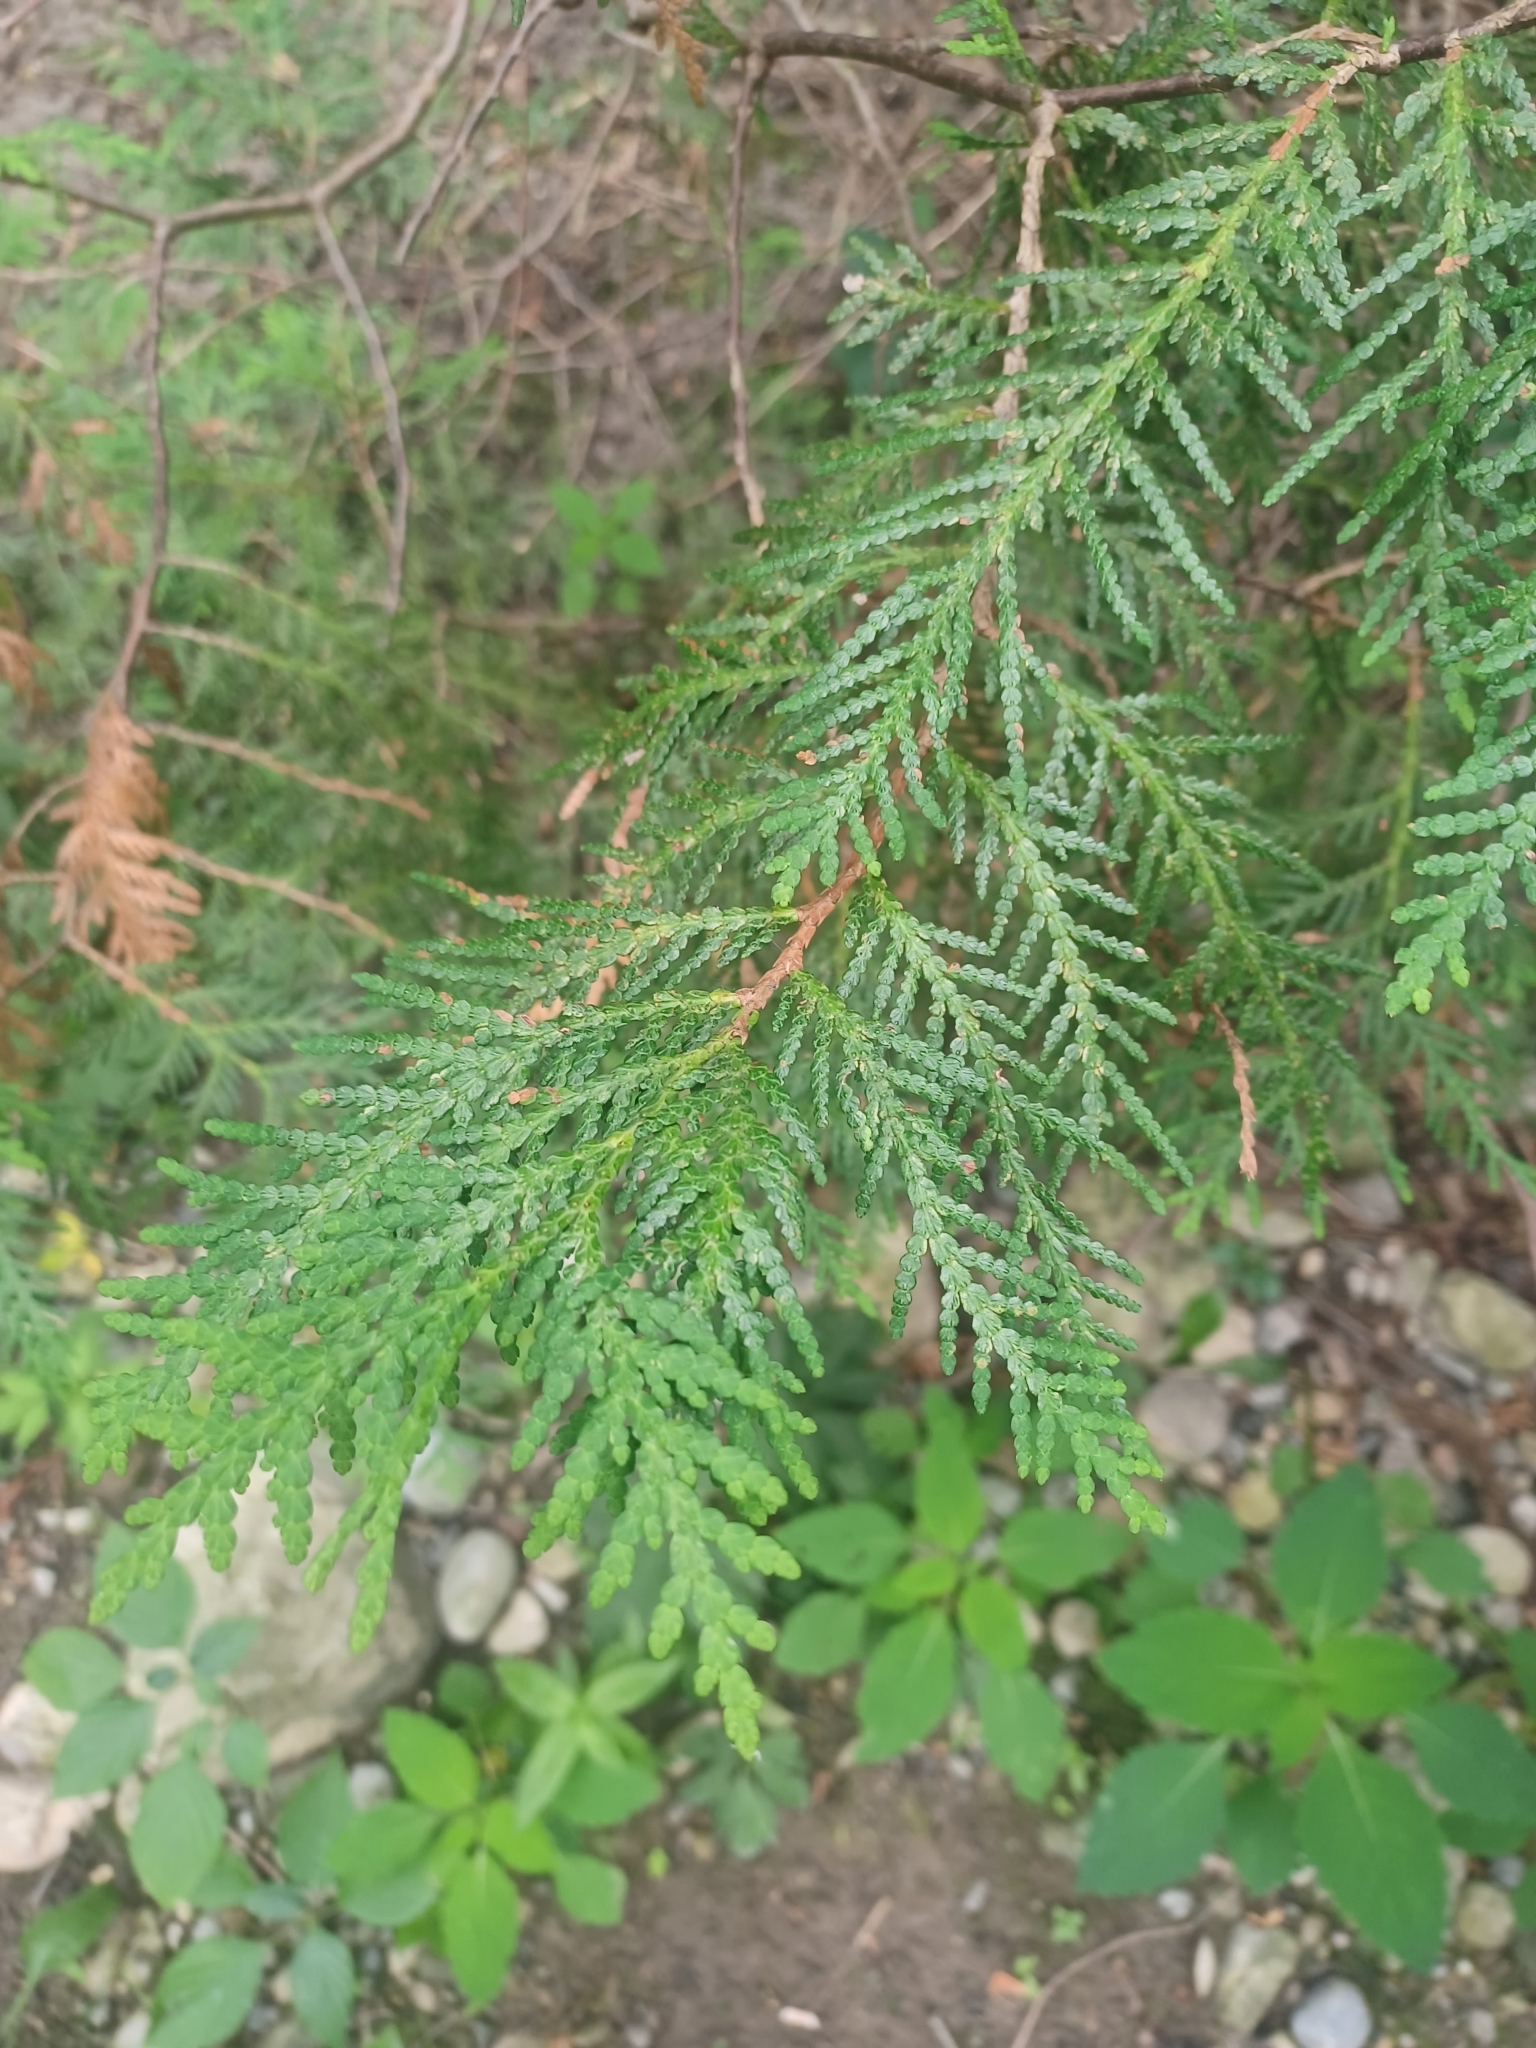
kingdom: Plantae
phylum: Tracheophyta
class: Pinopsida
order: Pinales
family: Cupressaceae
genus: Thuja
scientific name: Thuja occidentalis
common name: Northern white-cedar
